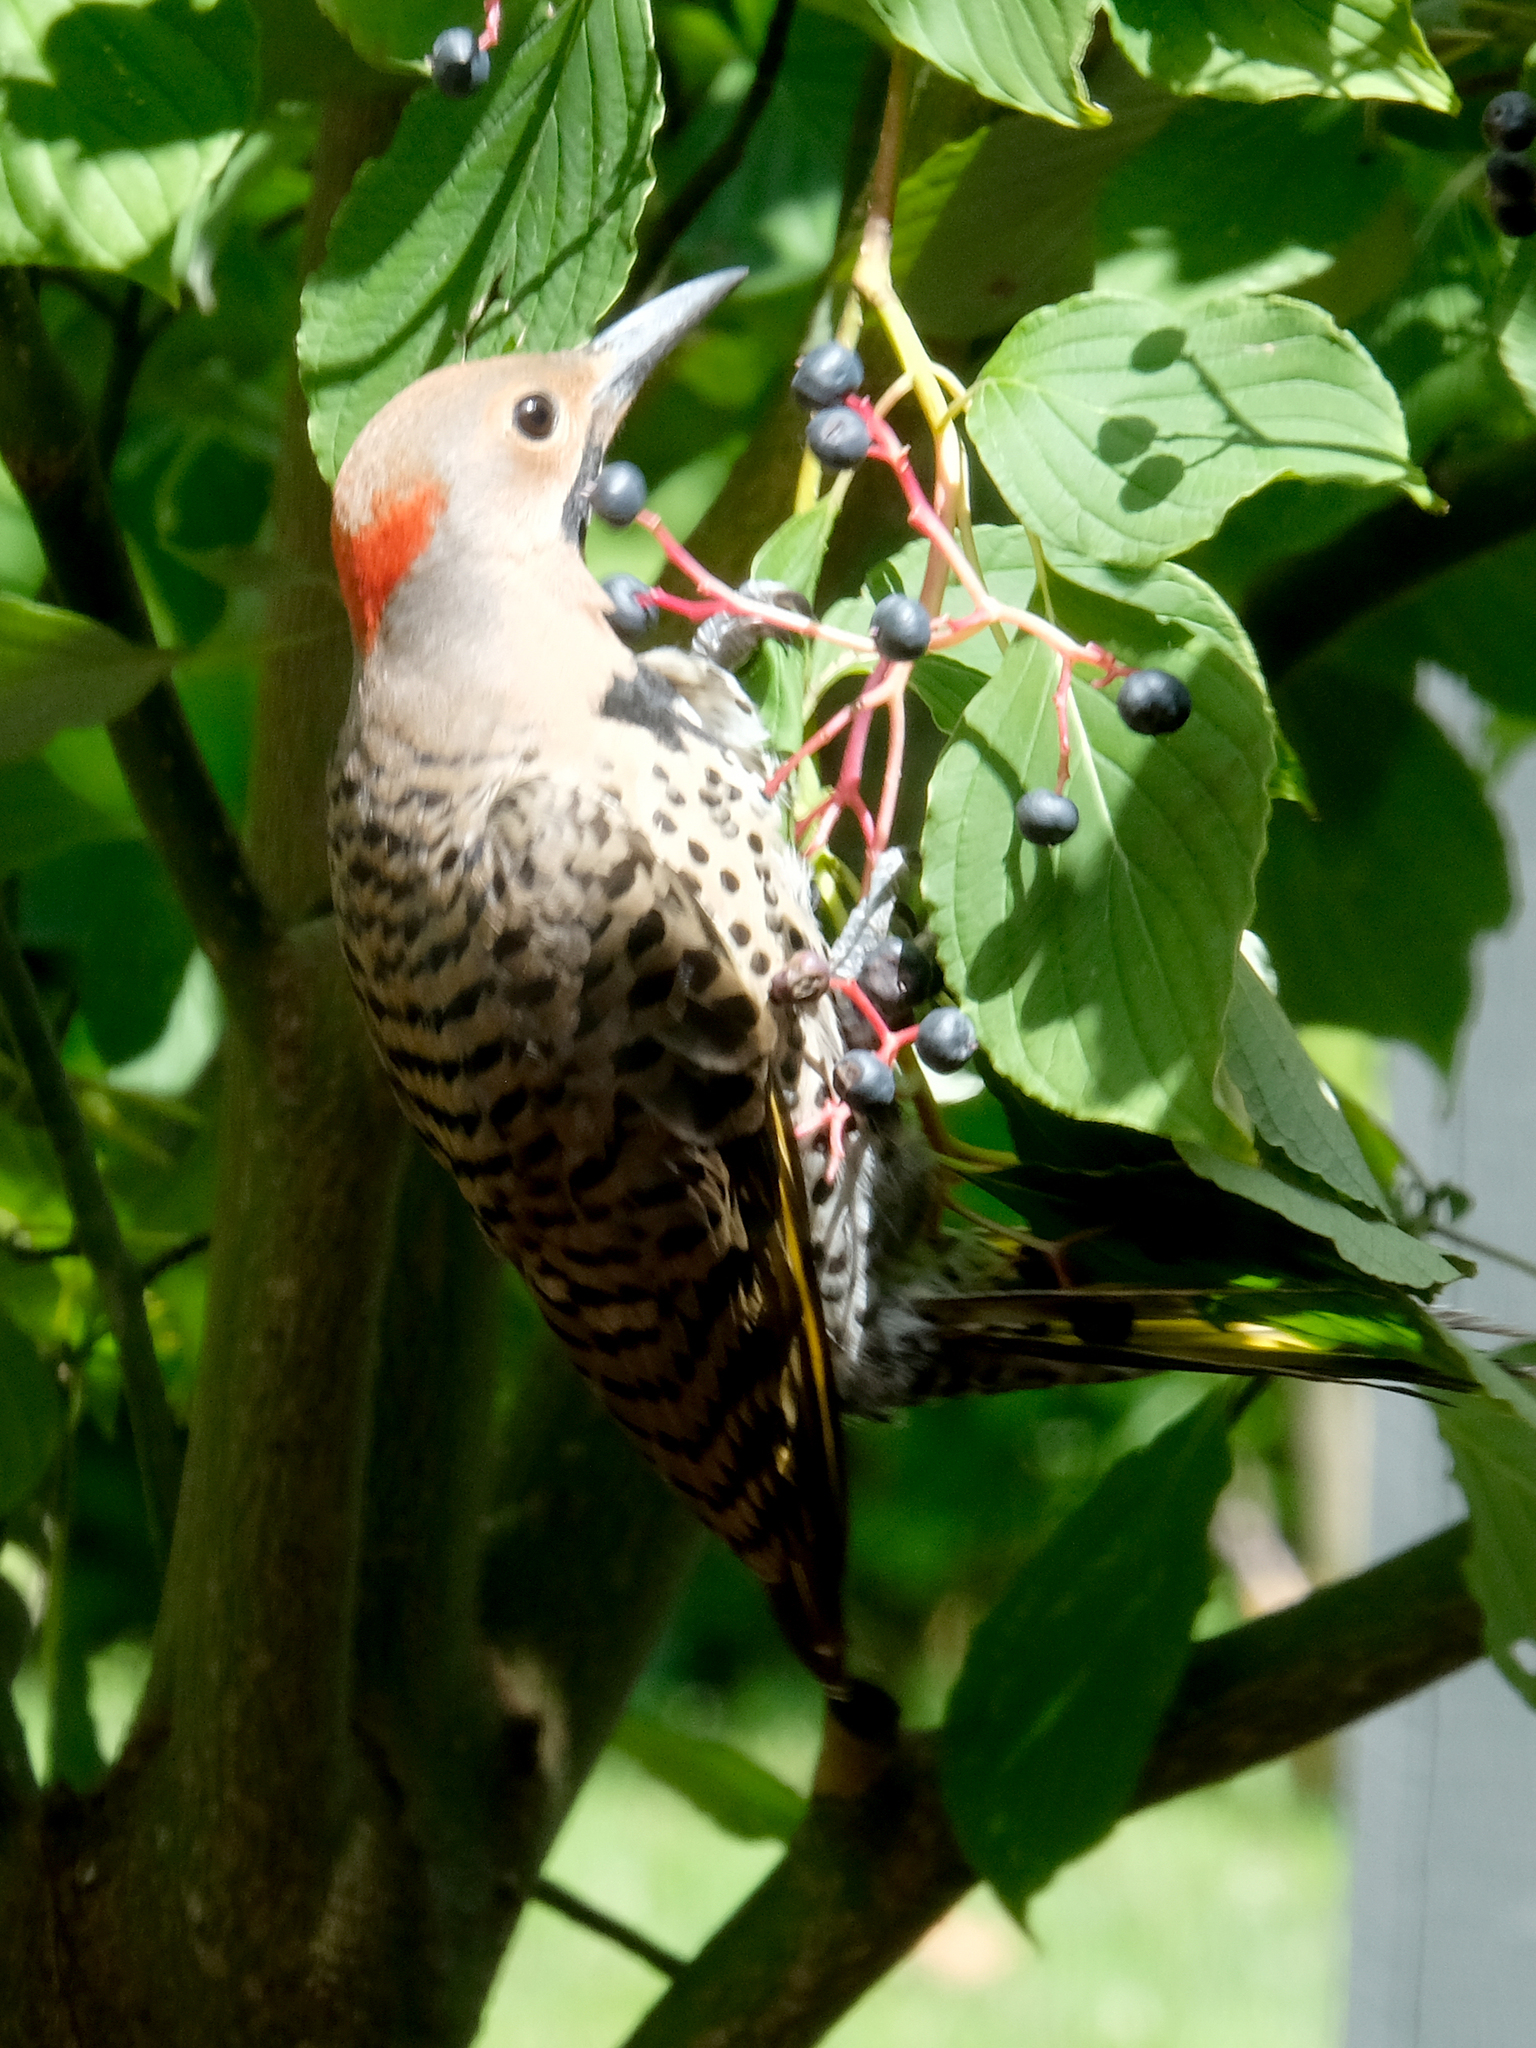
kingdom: Animalia
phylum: Chordata
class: Aves
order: Piciformes
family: Picidae
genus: Colaptes
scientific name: Colaptes auratus
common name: Northern flicker
